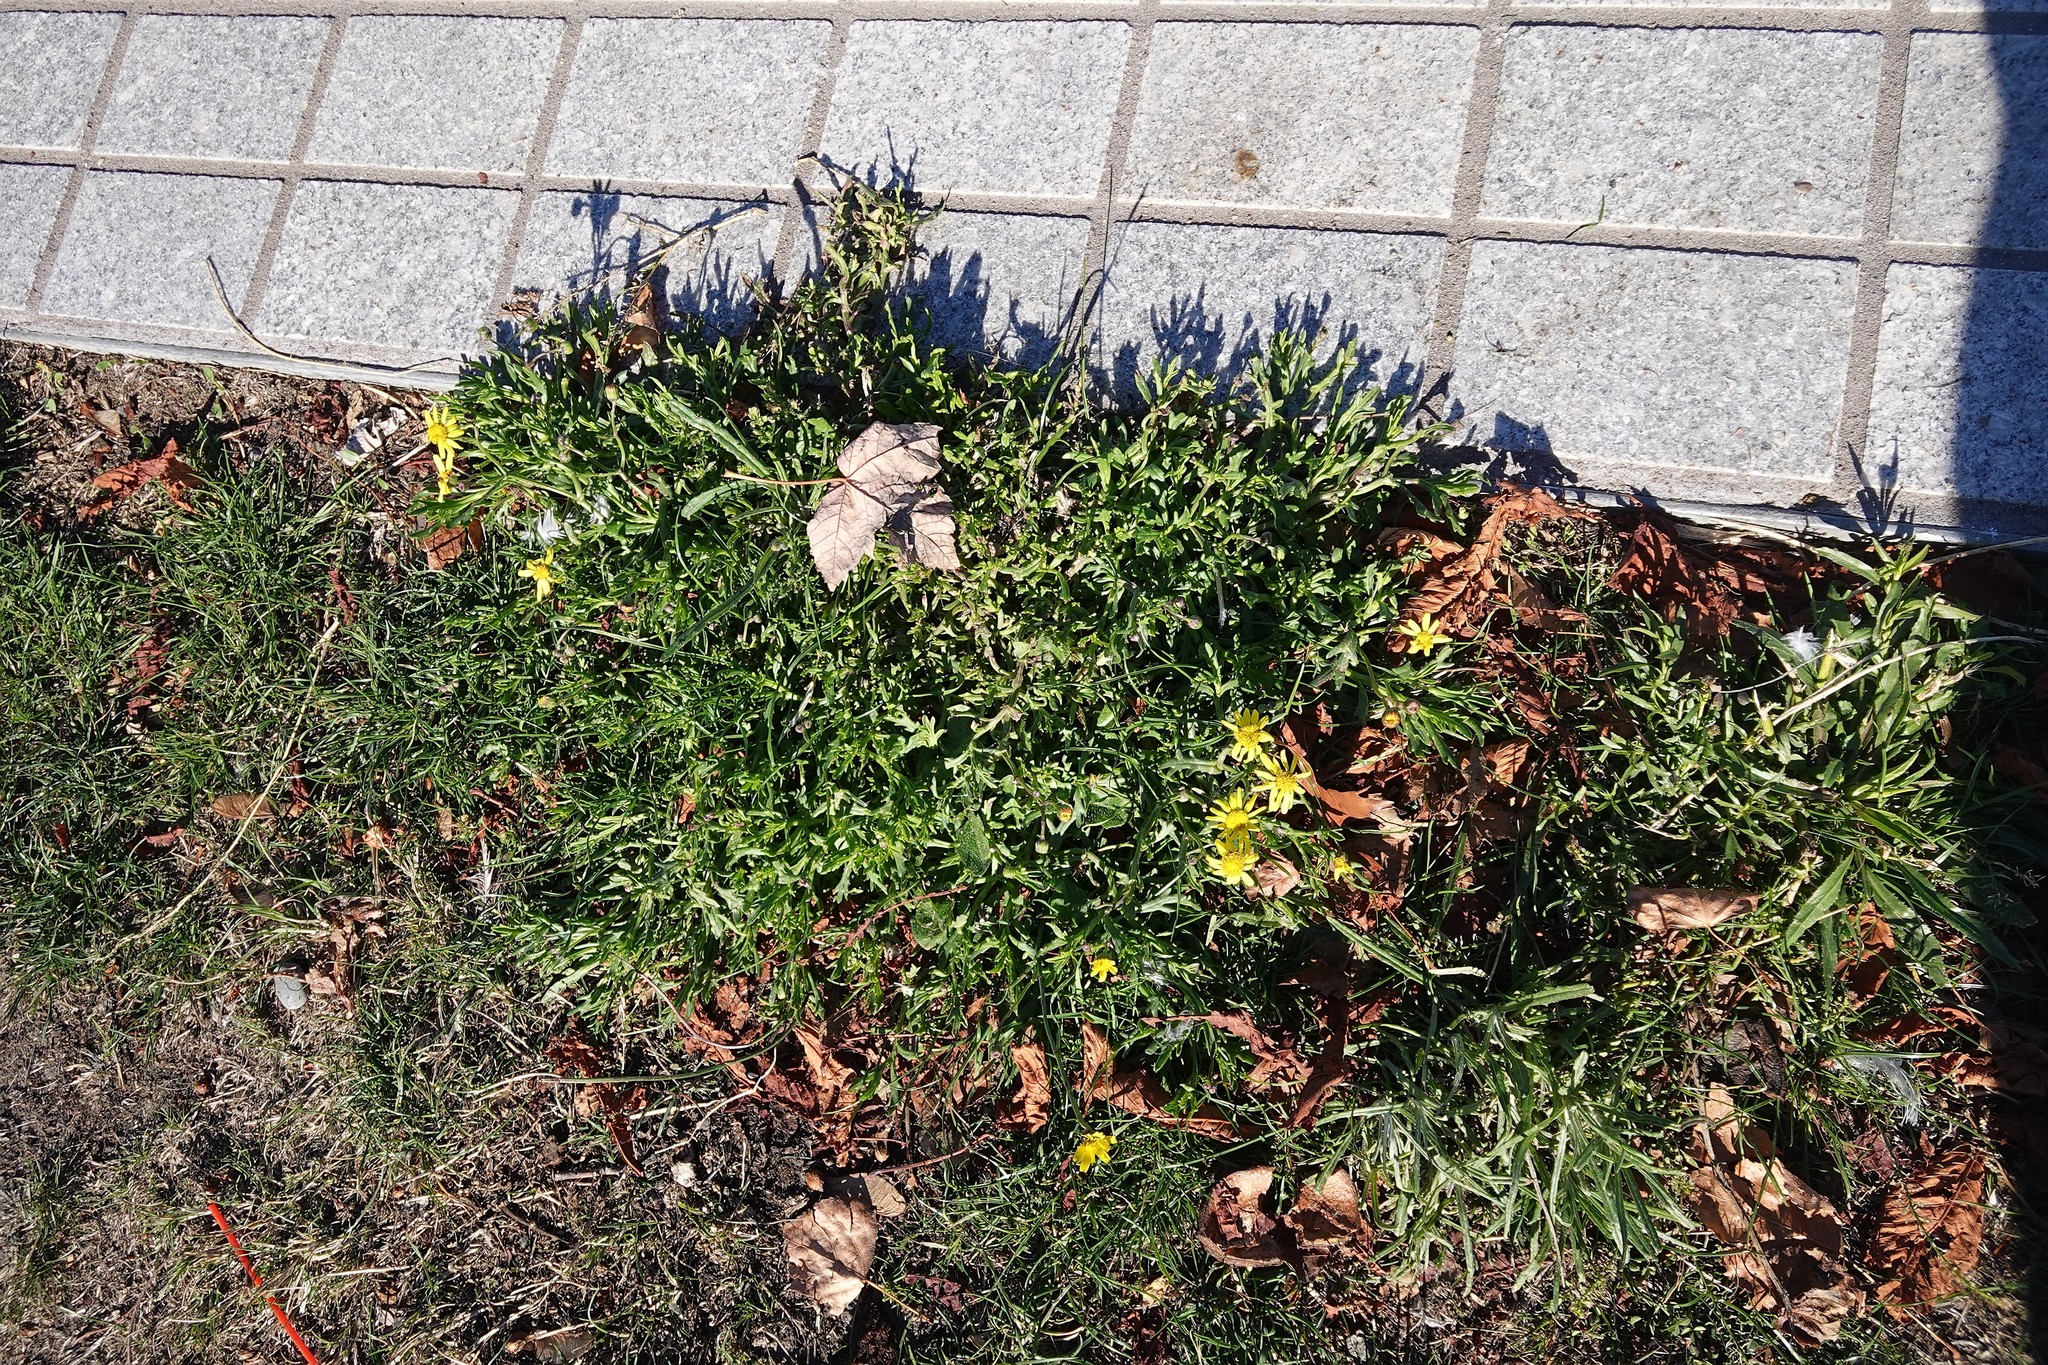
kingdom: Plantae
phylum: Tracheophyta
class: Magnoliopsida
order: Asterales
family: Asteraceae
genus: Senecio
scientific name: Senecio skirrhodon
